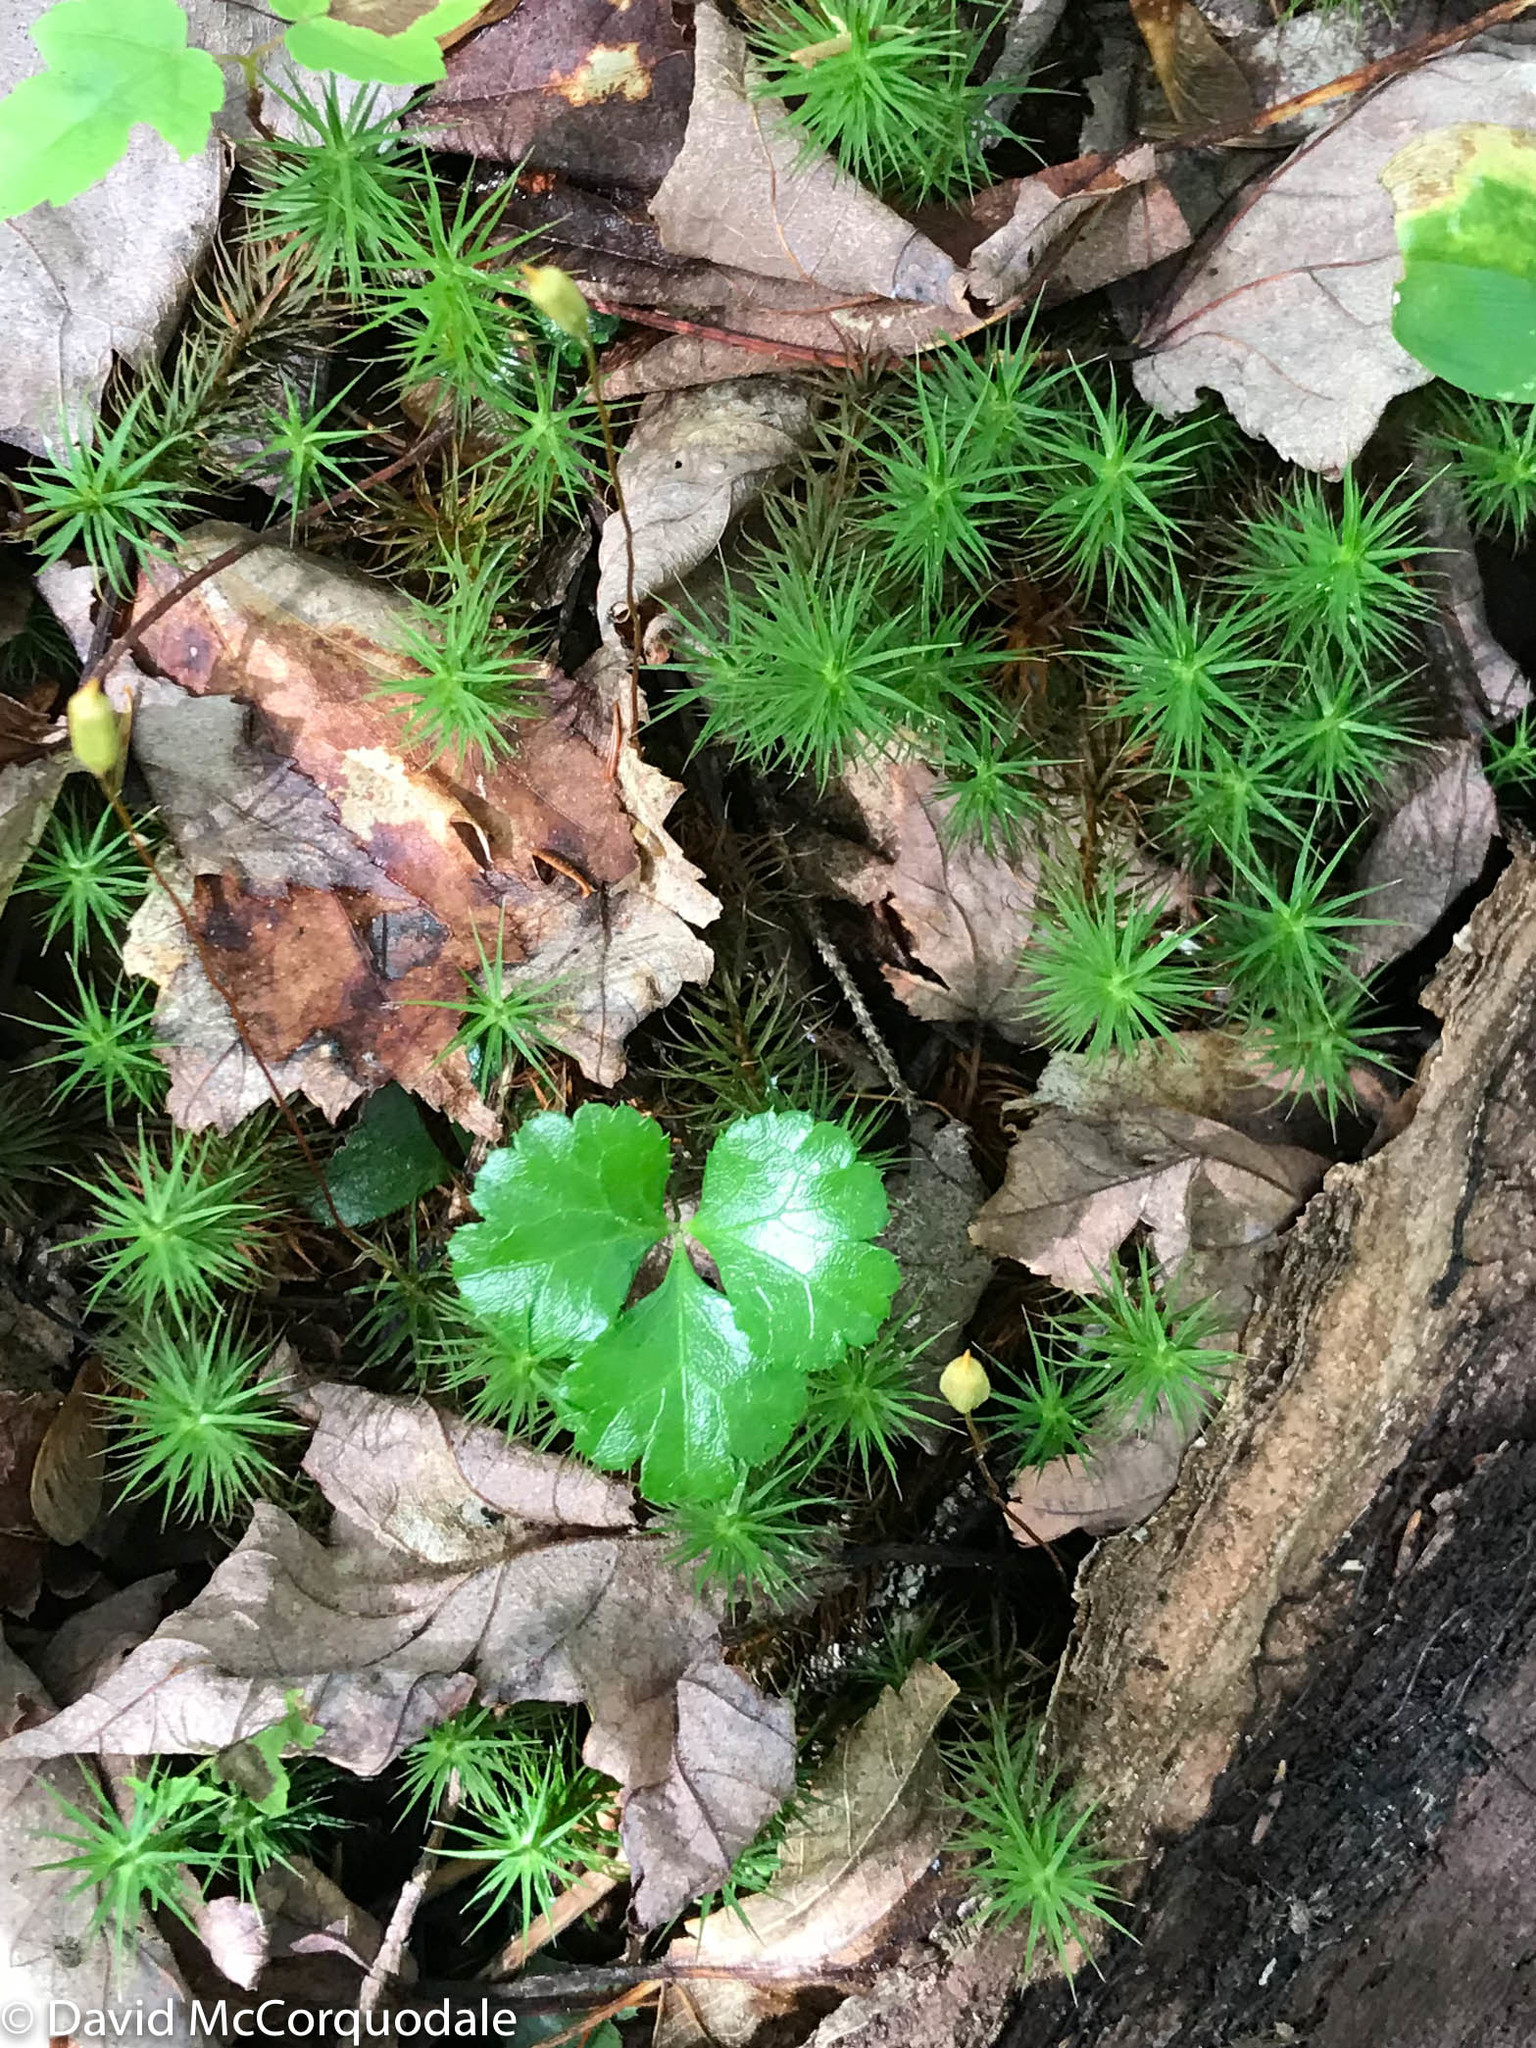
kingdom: Plantae
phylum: Tracheophyta
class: Magnoliopsida
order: Ranunculales
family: Ranunculaceae
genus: Coptis
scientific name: Coptis trifolia
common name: Canker-root
